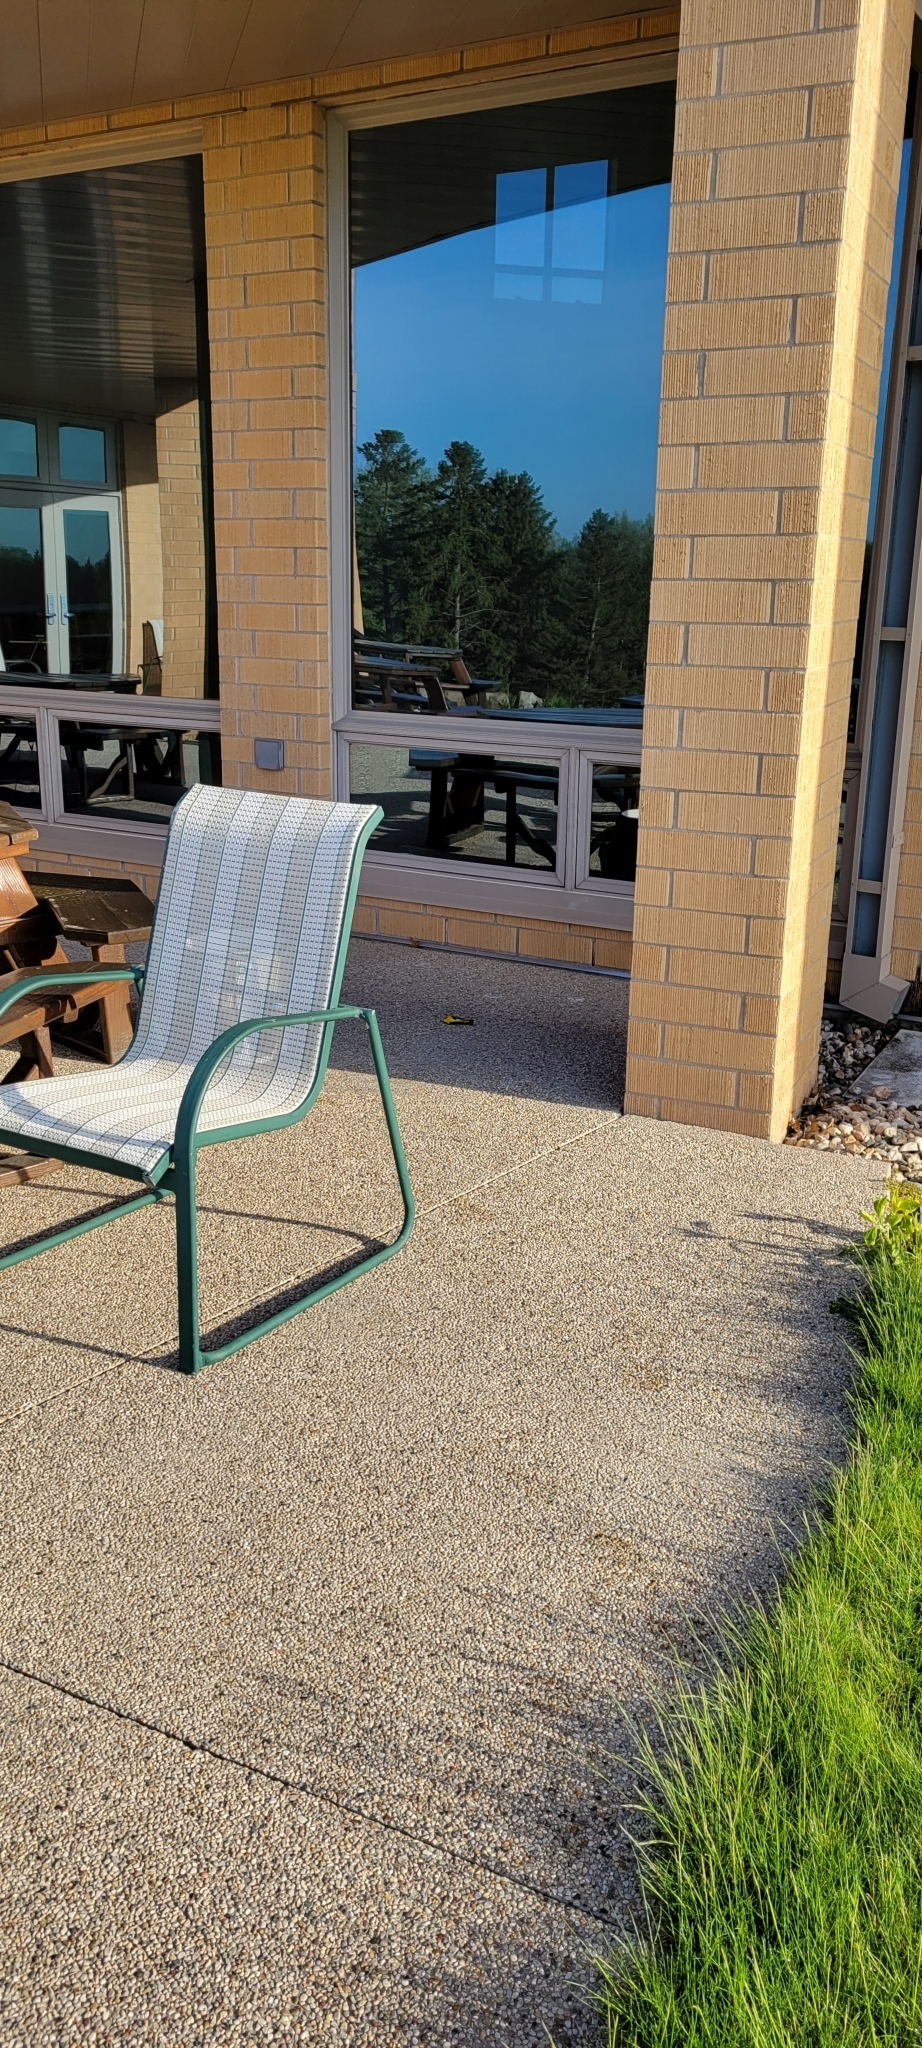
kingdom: Animalia
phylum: Chordata
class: Aves
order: Passeriformes
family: Parulidae
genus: Geothlypis
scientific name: Geothlypis trichas
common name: Common yellowthroat
